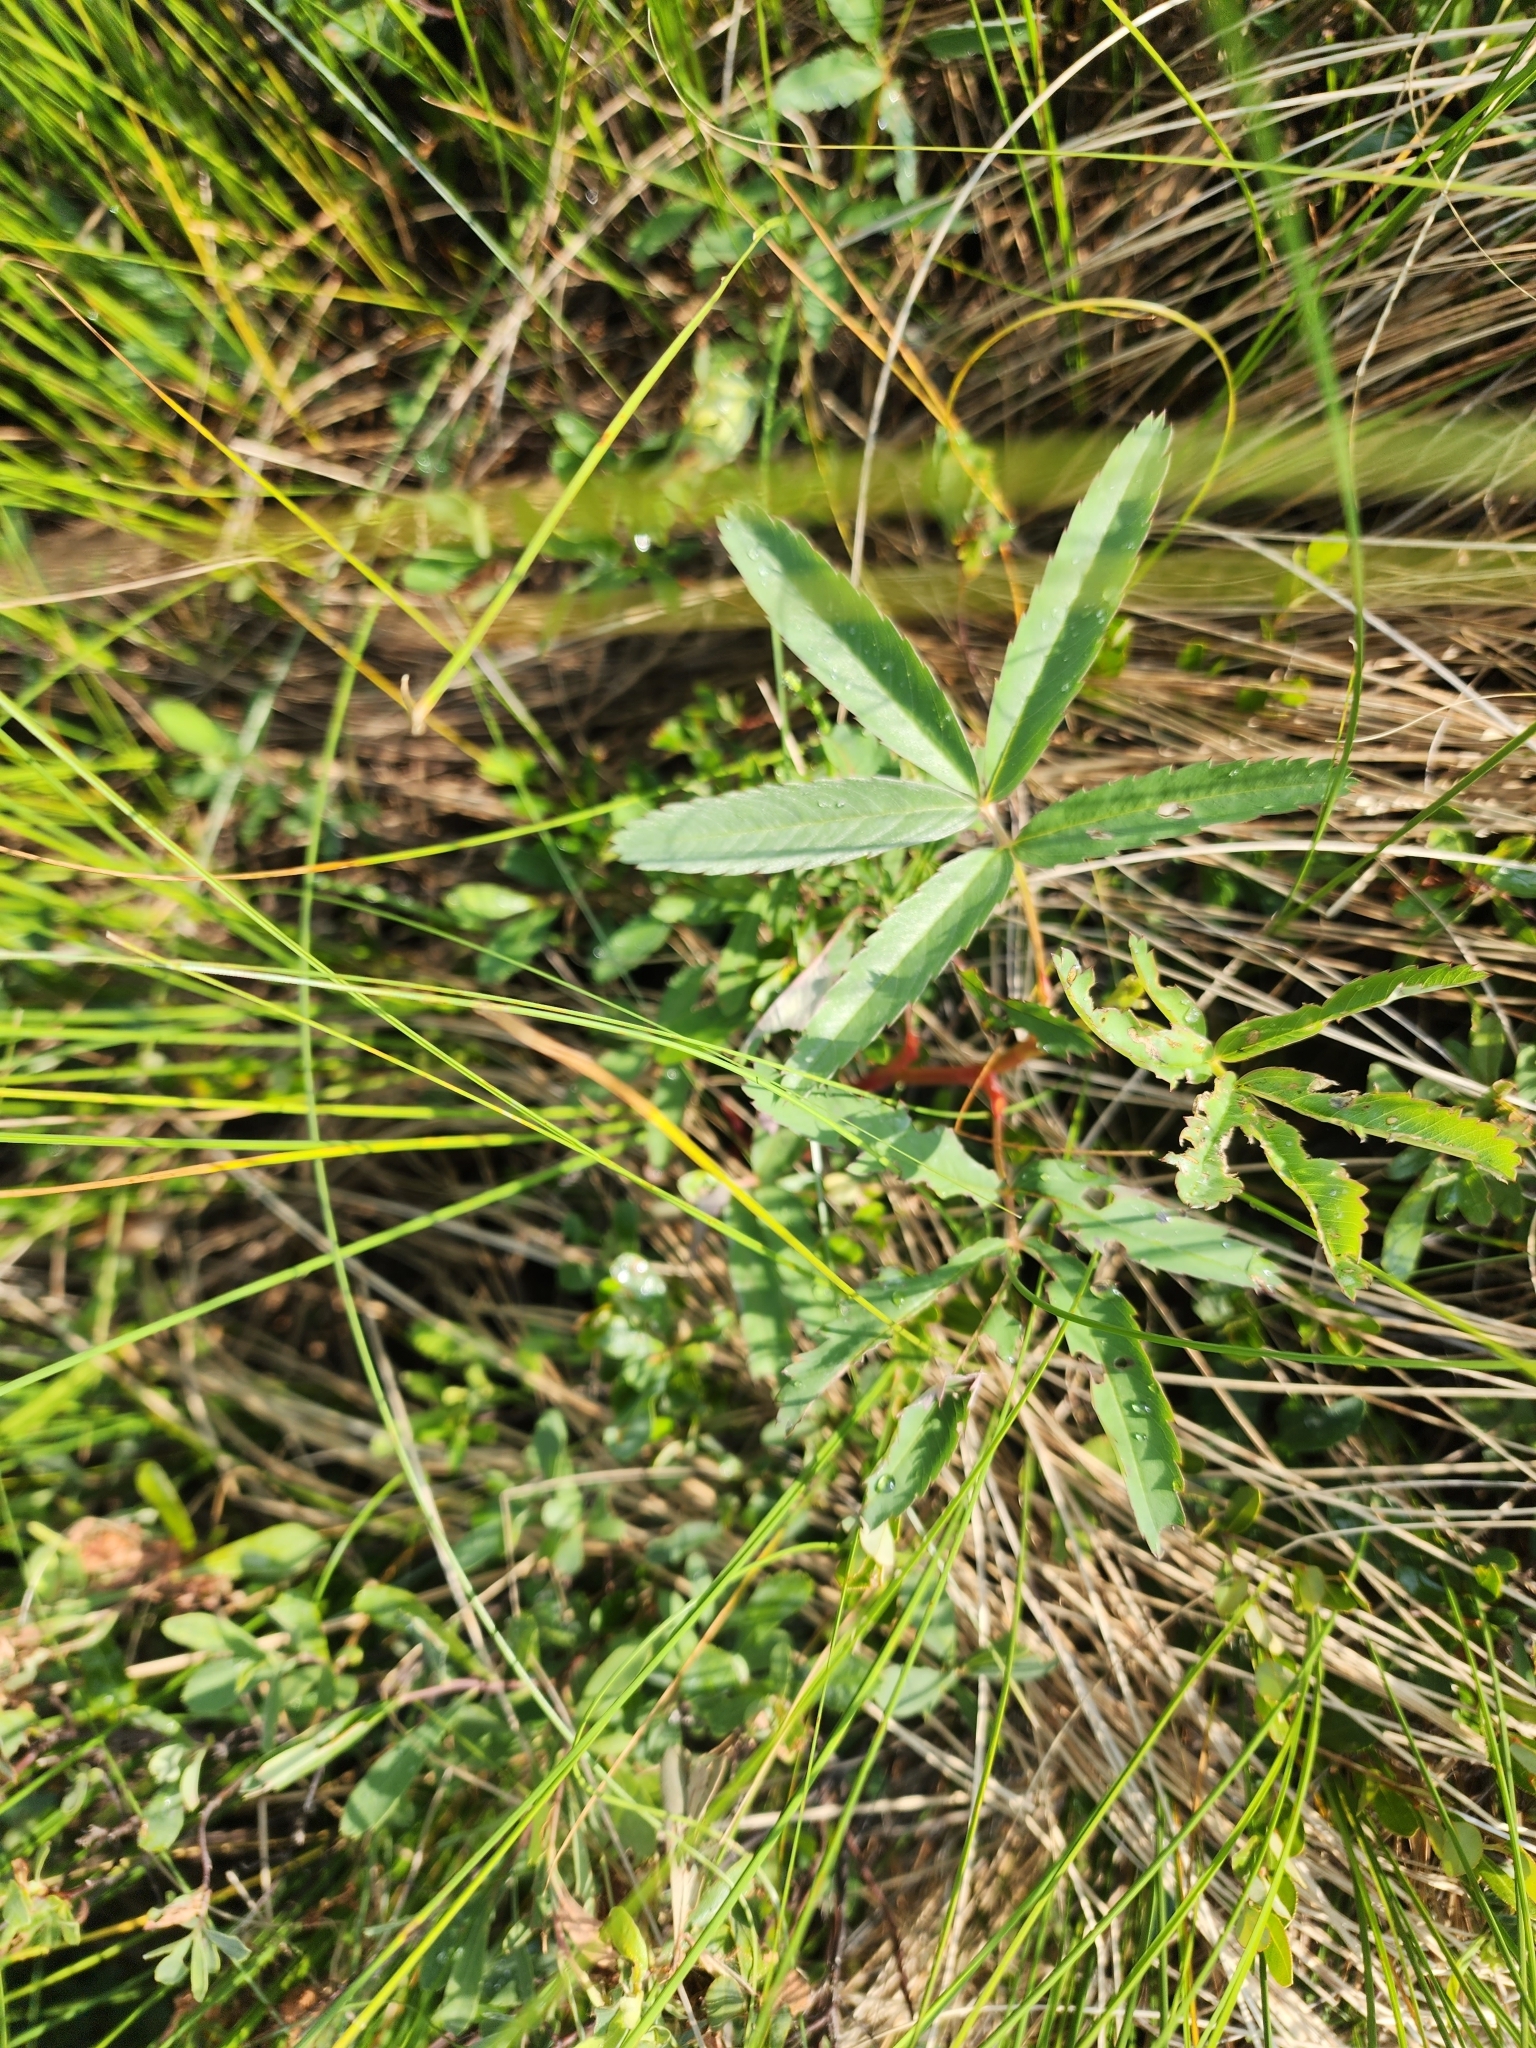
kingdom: Plantae
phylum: Tracheophyta
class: Magnoliopsida
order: Rosales
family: Rosaceae
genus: Comarum
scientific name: Comarum palustre
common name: Marsh cinquefoil
